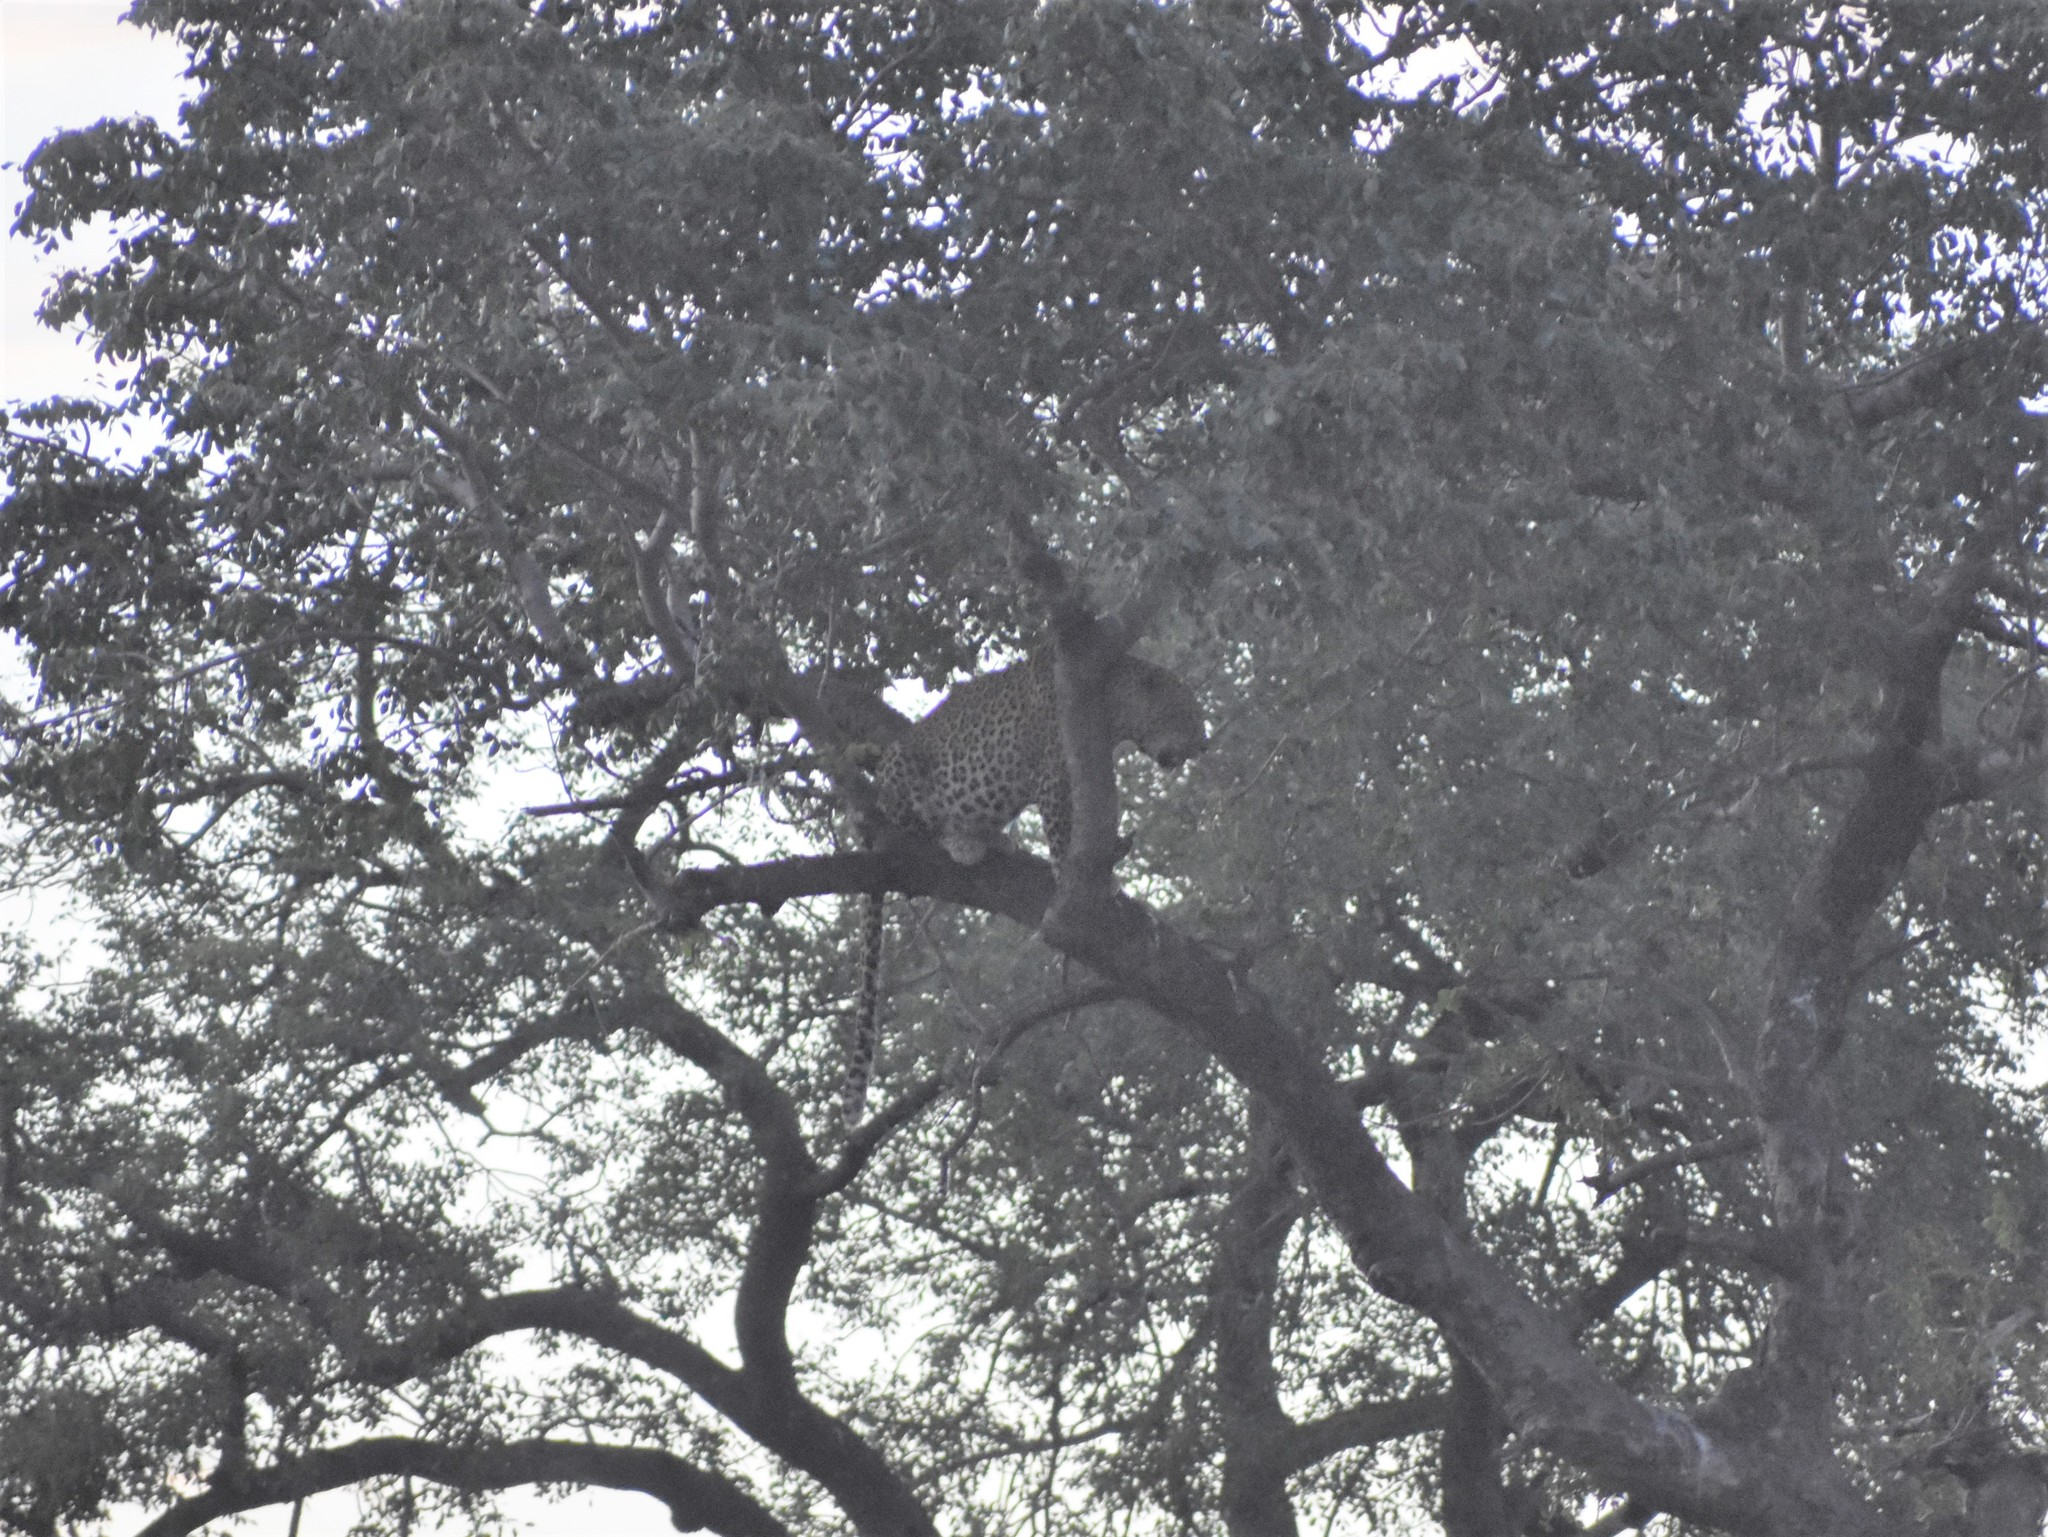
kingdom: Animalia
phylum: Chordata
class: Mammalia
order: Carnivora
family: Felidae
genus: Panthera
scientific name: Panthera pardus
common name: Leopard
